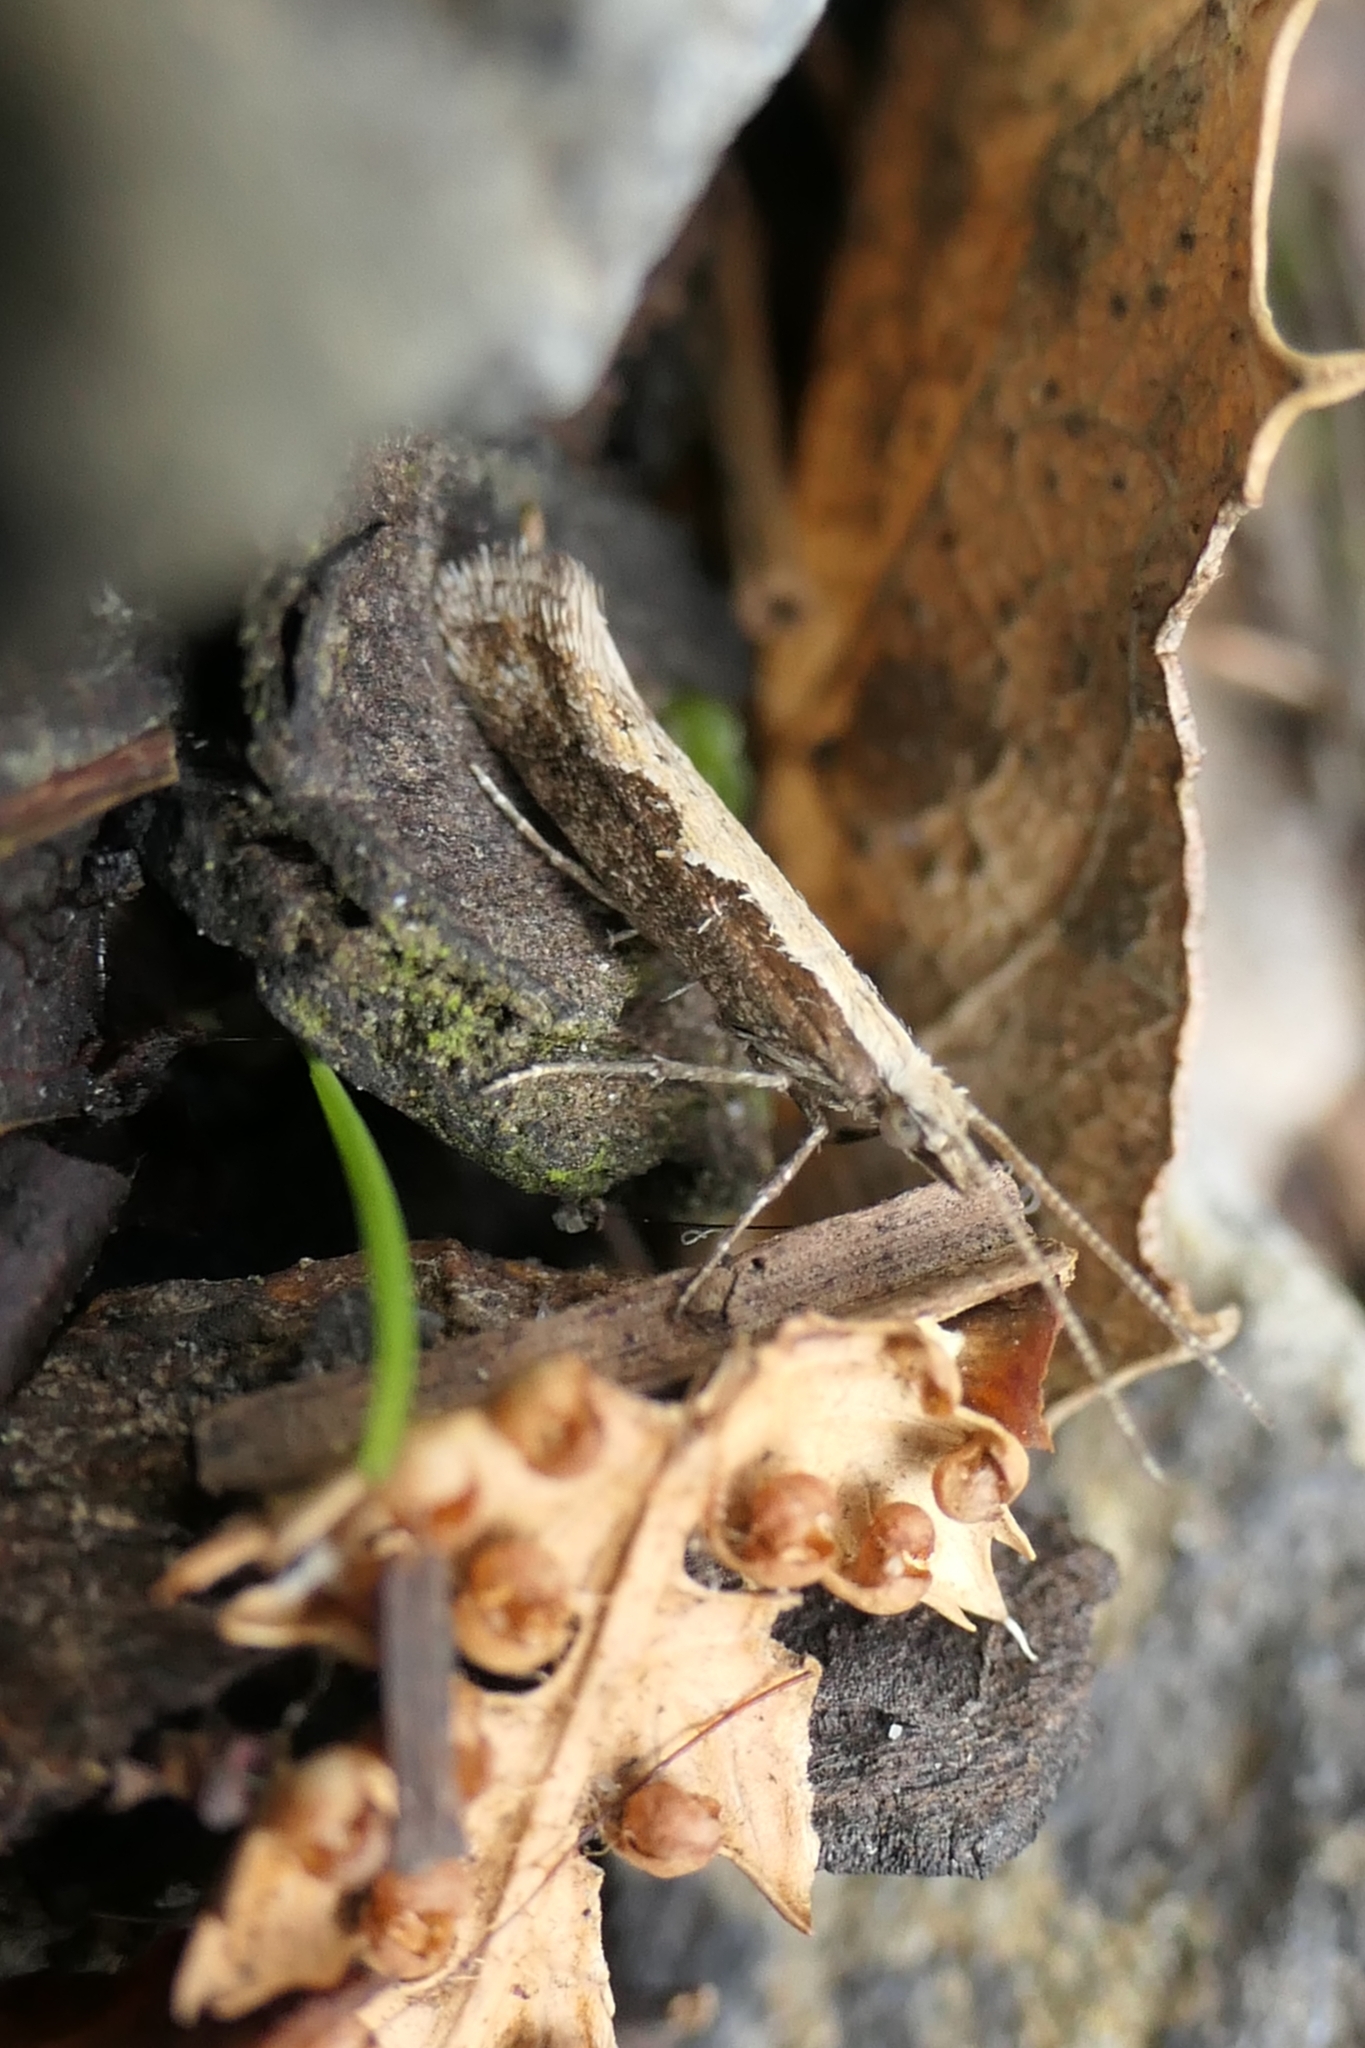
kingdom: Animalia
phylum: Arthropoda
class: Insecta
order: Lepidoptera
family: Plutellidae
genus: Plutella
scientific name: Plutella xylostella
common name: Diamond-back moth
